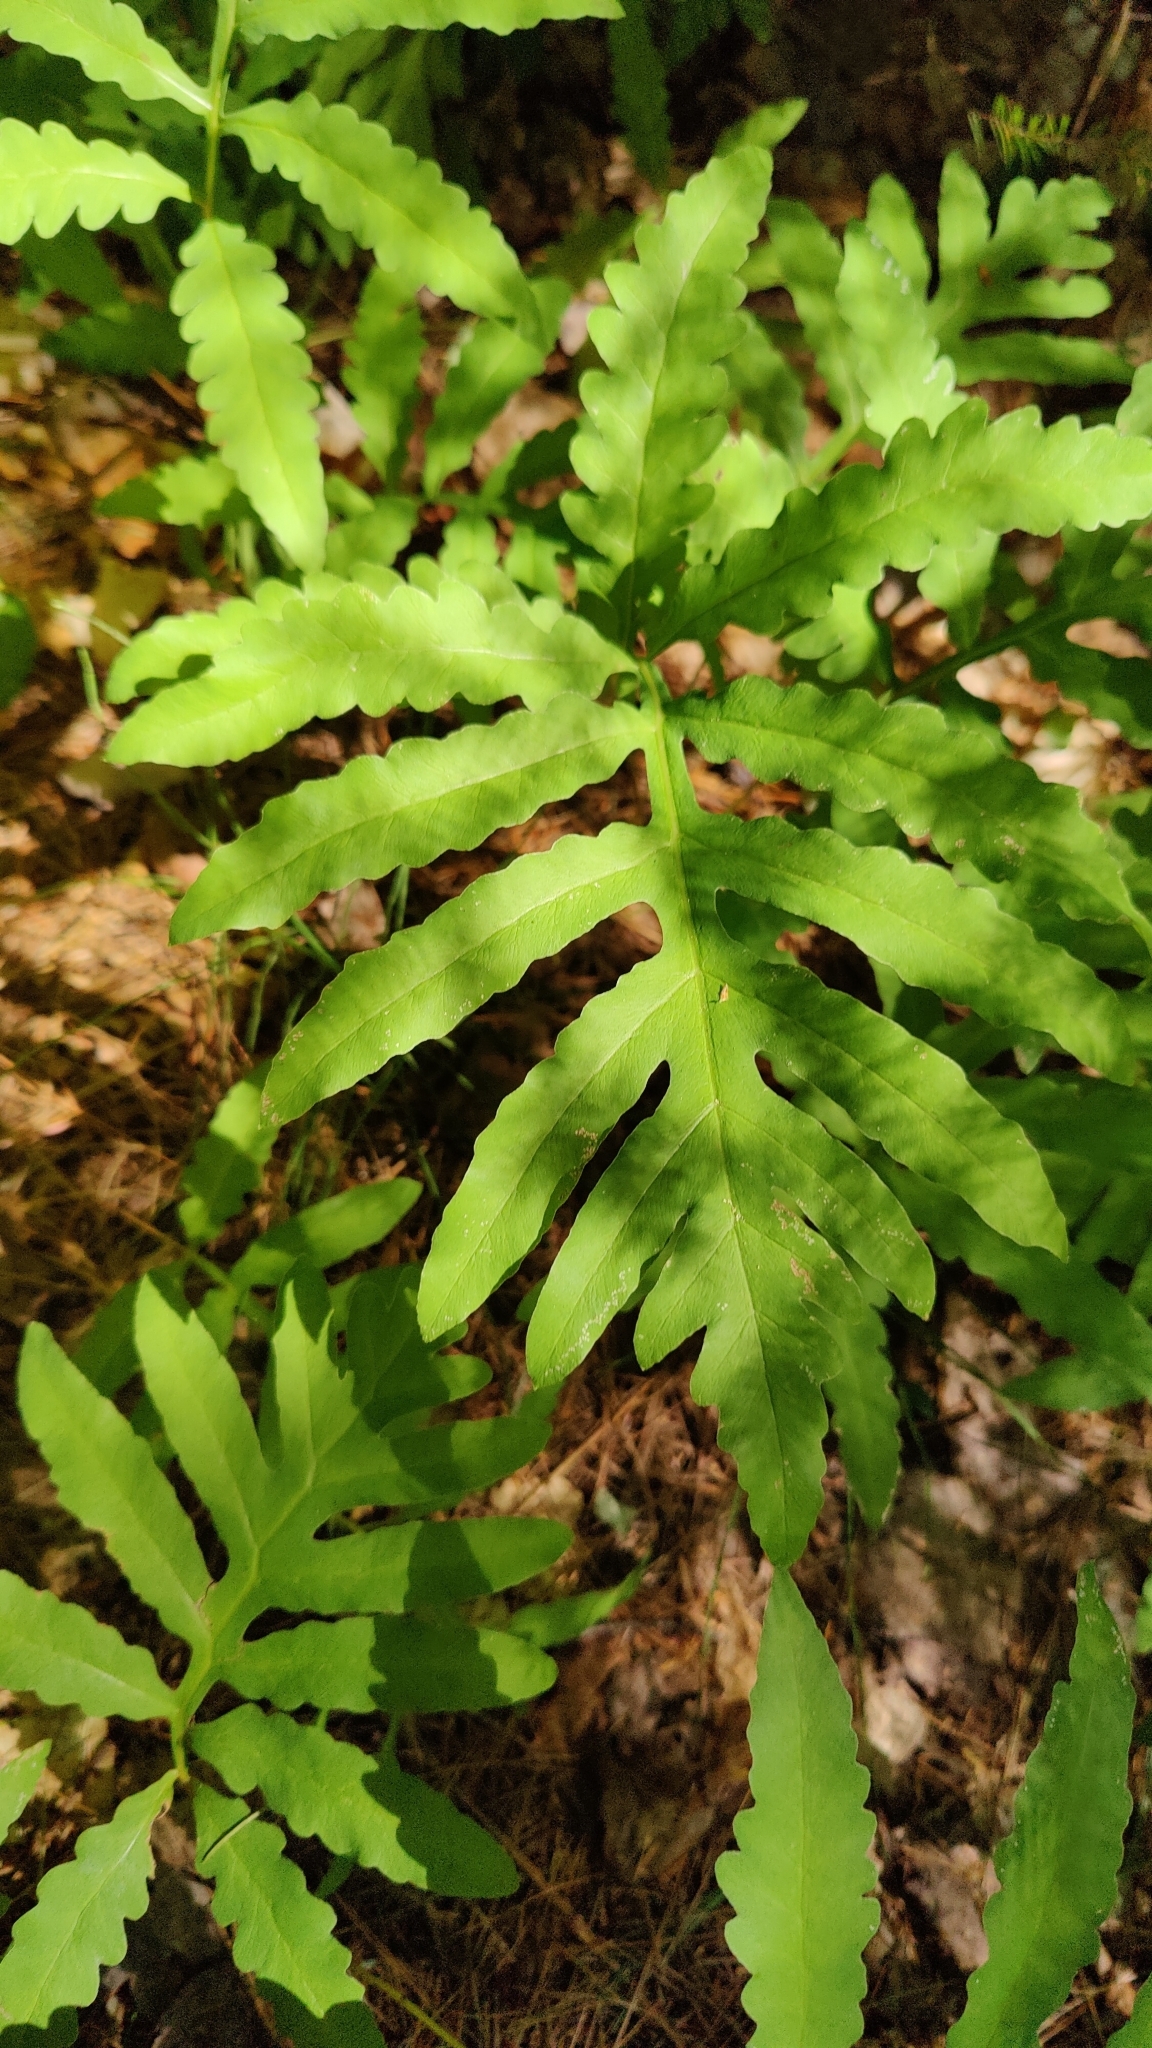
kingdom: Plantae
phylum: Tracheophyta
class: Polypodiopsida
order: Polypodiales
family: Onocleaceae
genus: Onoclea
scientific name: Onoclea sensibilis
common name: Sensitive fern
